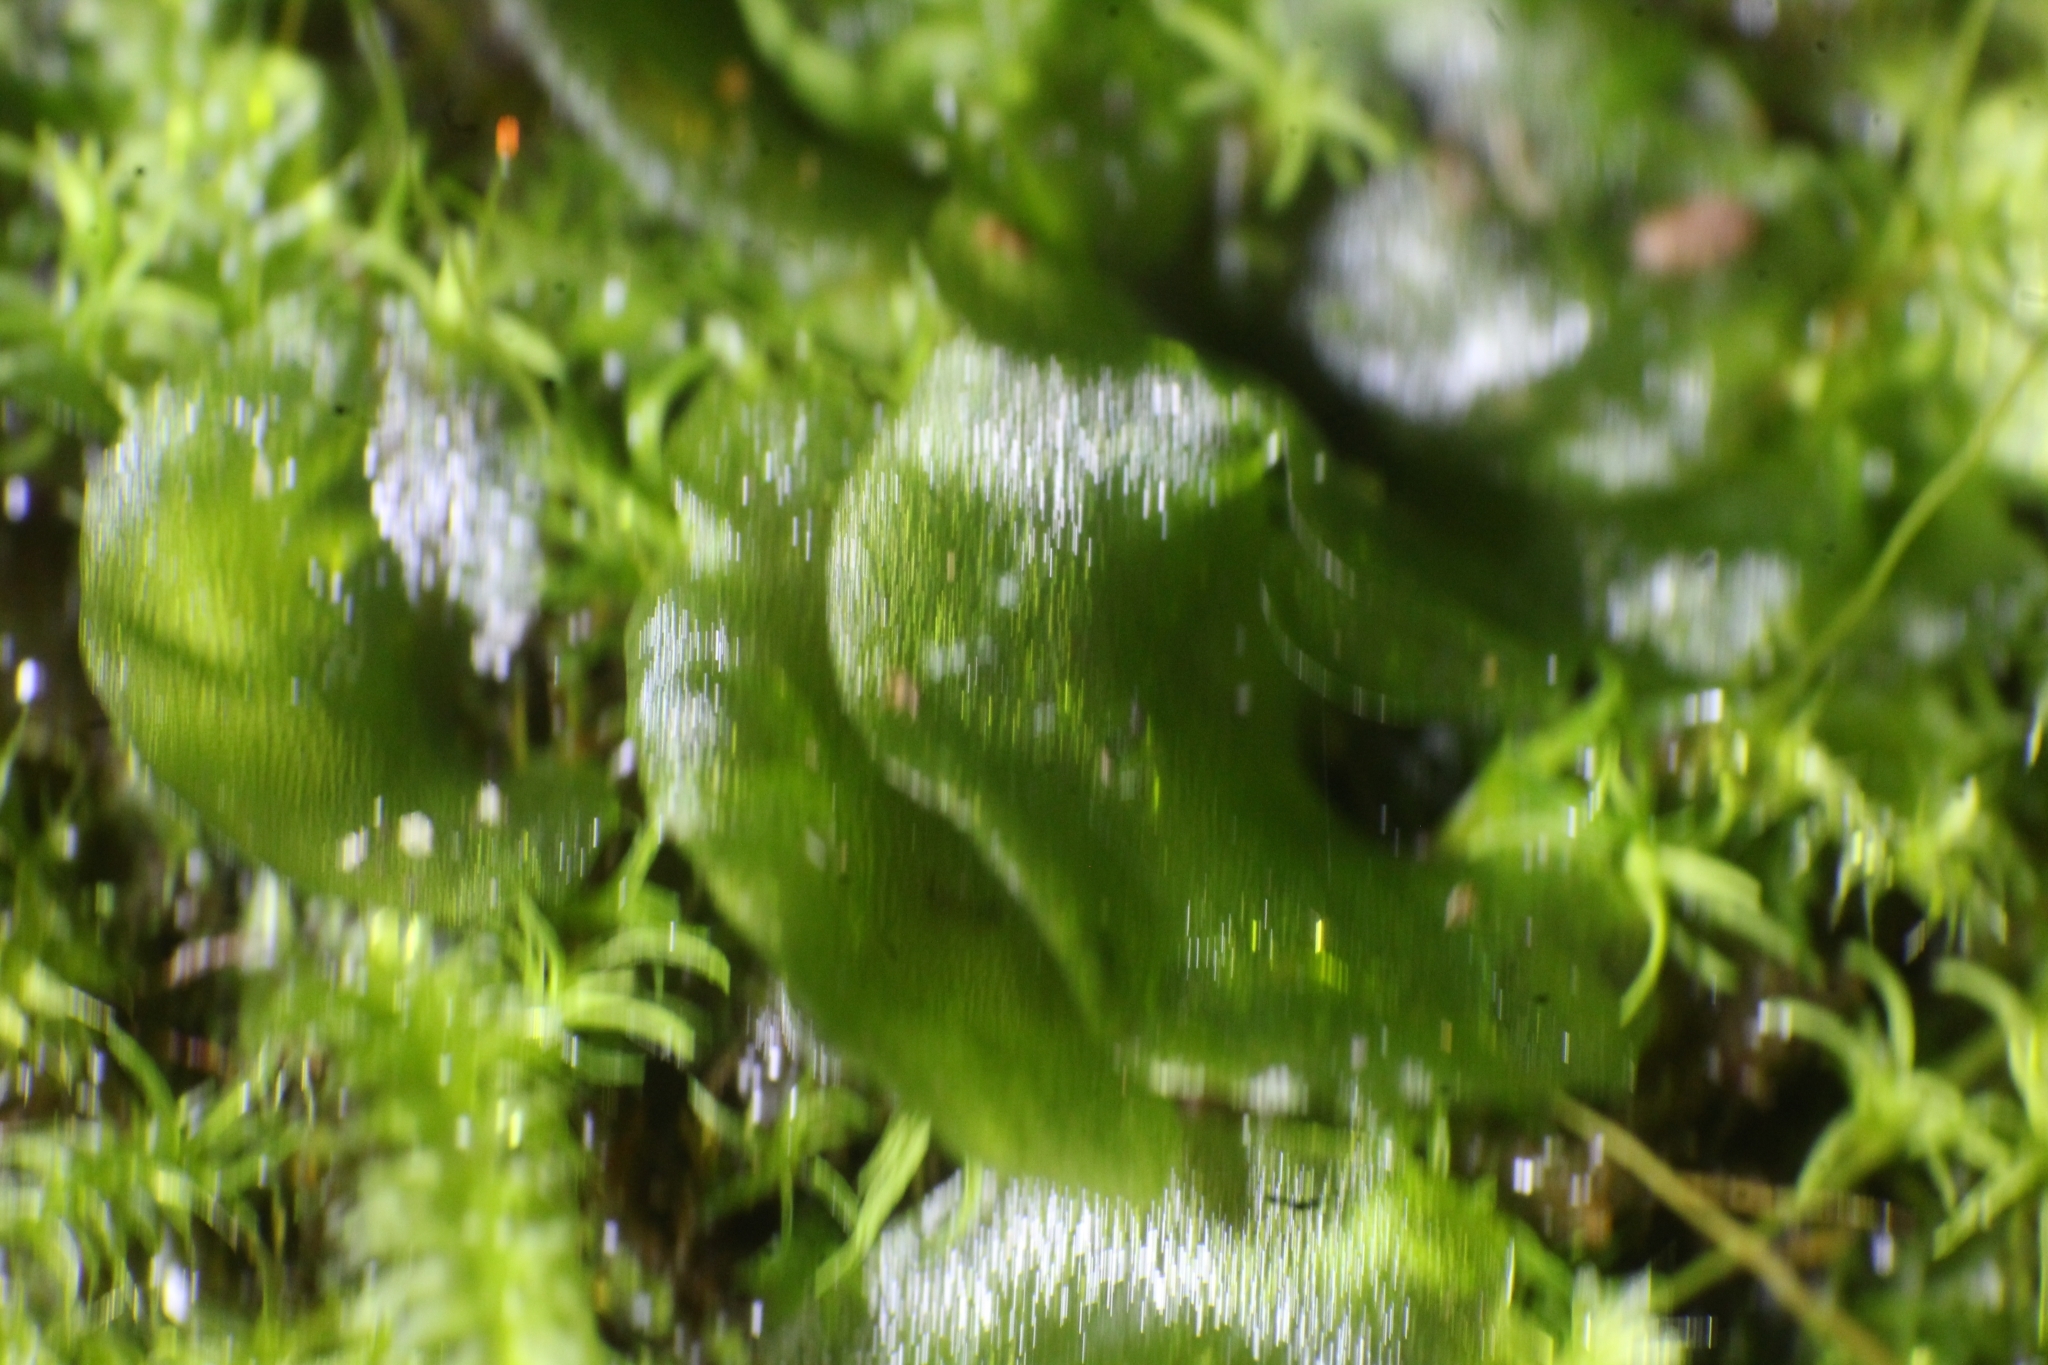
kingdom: Plantae
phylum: Tracheophyta
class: Polypodiopsida
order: Polypodiales
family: Pteridaceae
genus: Anogramma
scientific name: Anogramma leptophylla
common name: Jersey fern
